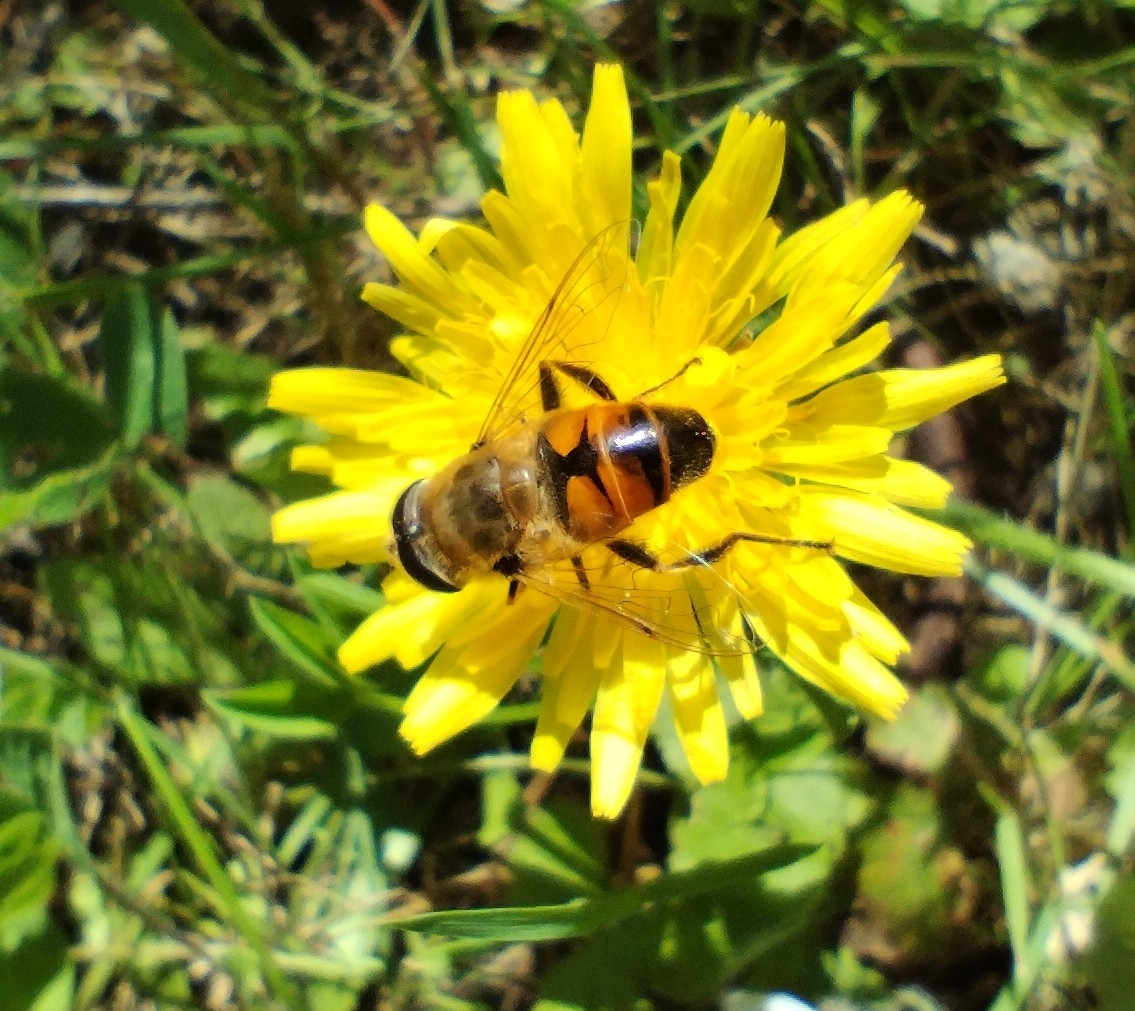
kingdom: Animalia
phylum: Arthropoda
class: Insecta
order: Diptera
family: Syrphidae
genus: Eristalis
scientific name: Eristalis tenax
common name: Drone fly
